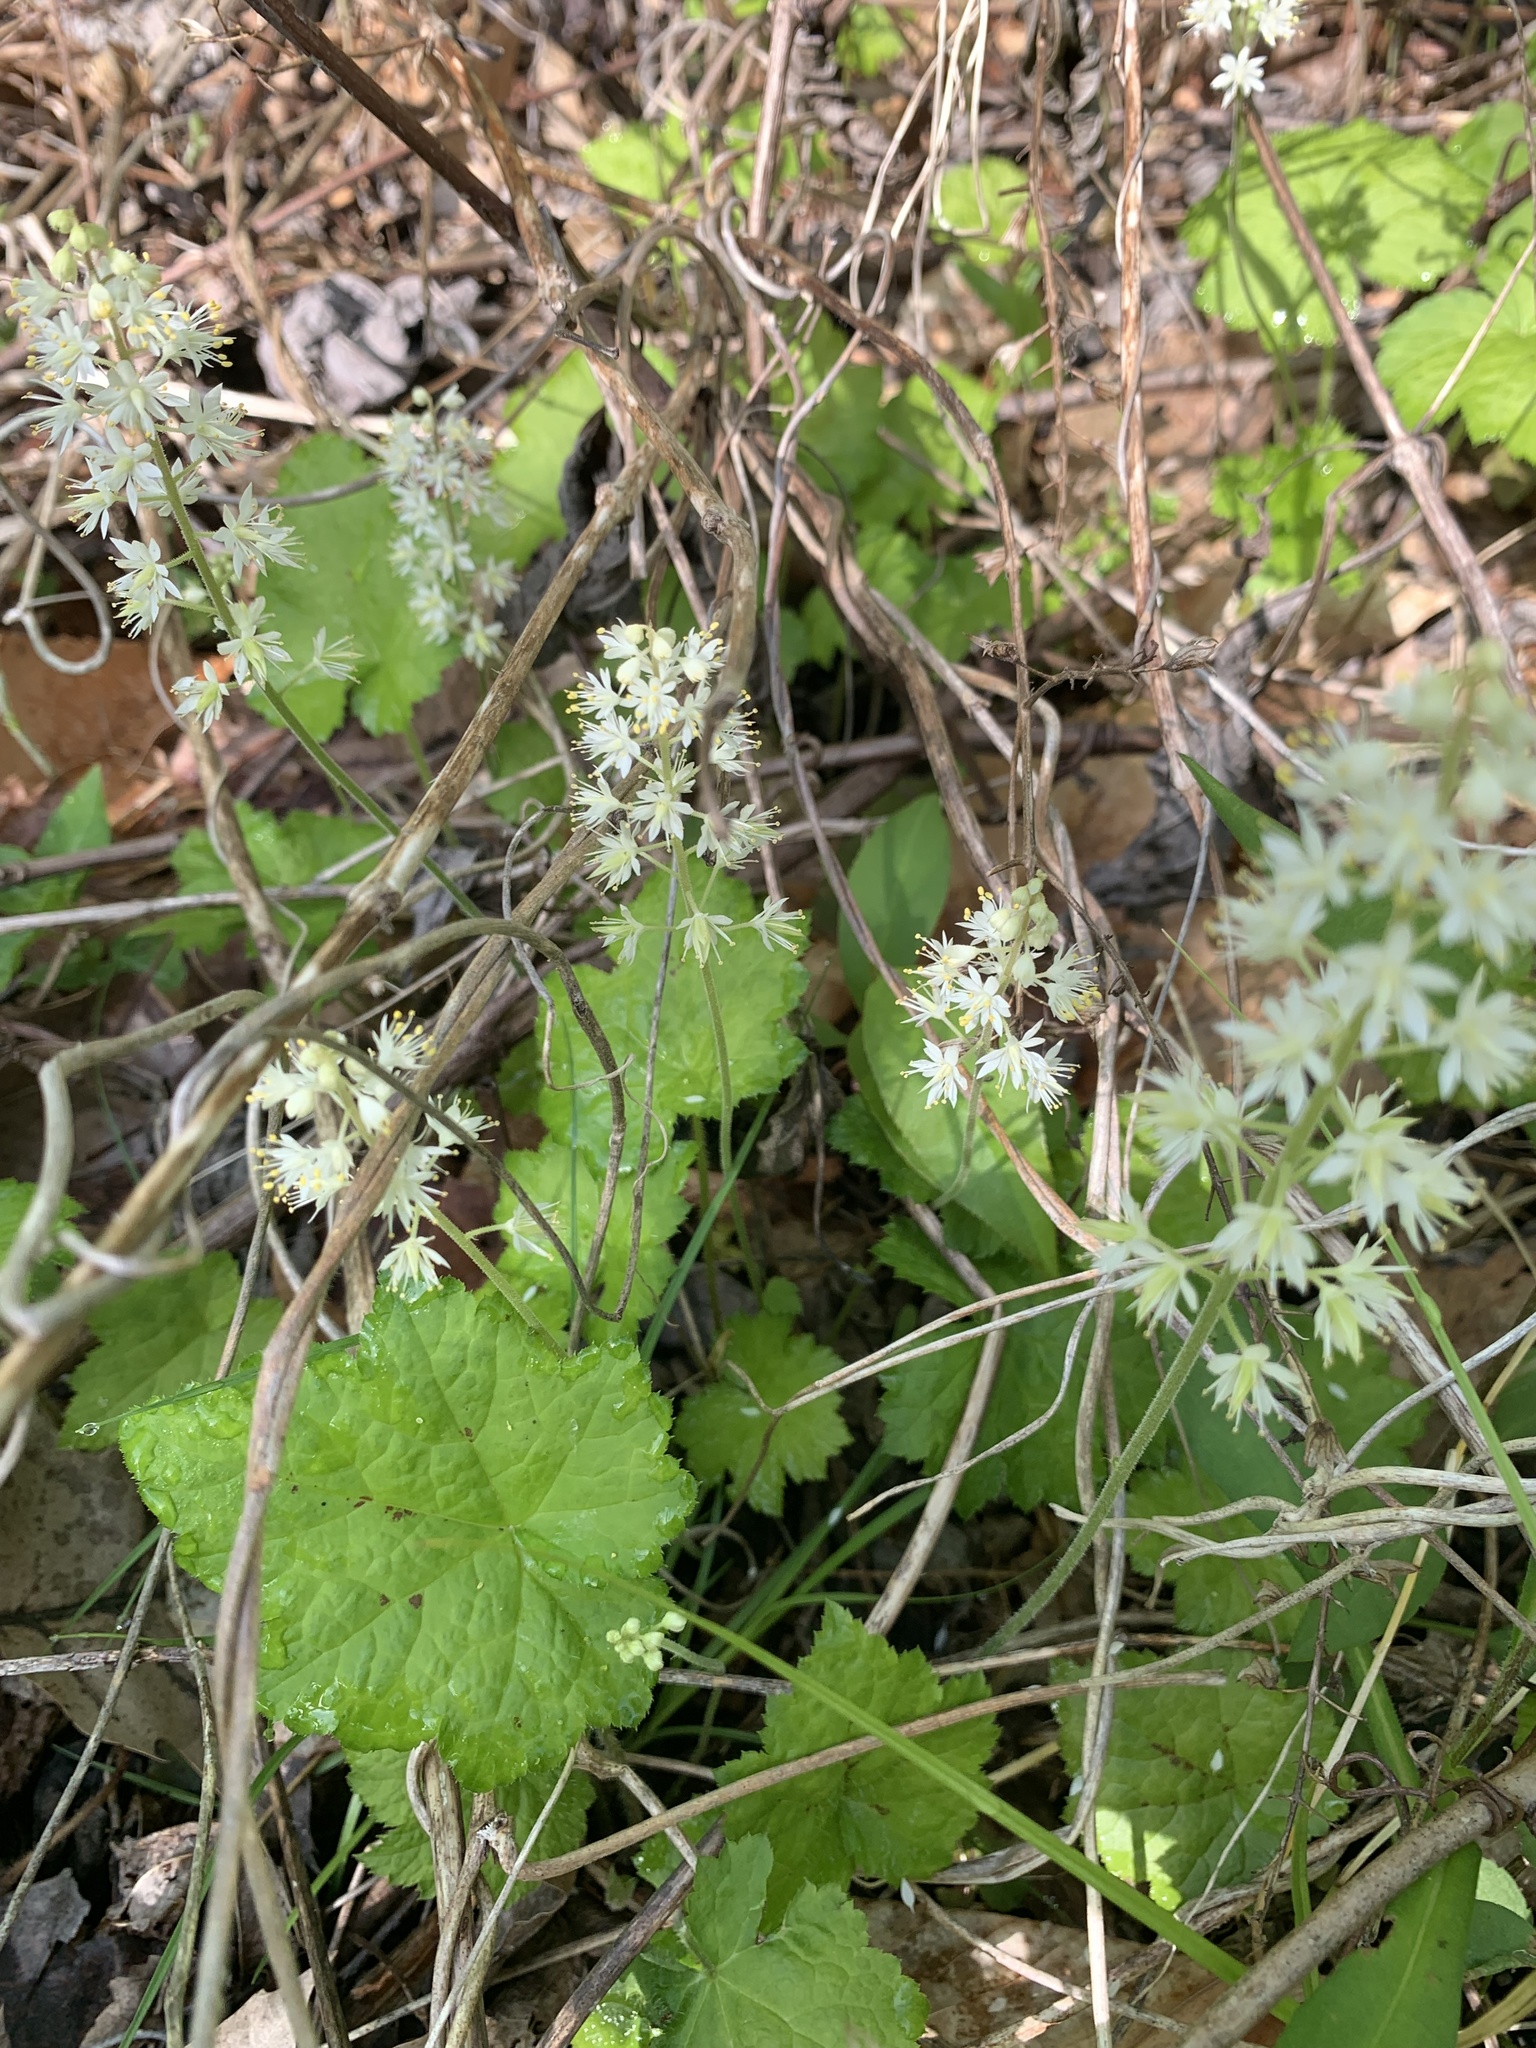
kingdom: Plantae
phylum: Tracheophyta
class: Magnoliopsida
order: Saxifragales
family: Saxifragaceae
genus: Tiarella
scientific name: Tiarella stolonifera
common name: Stoloniferous foamflower
